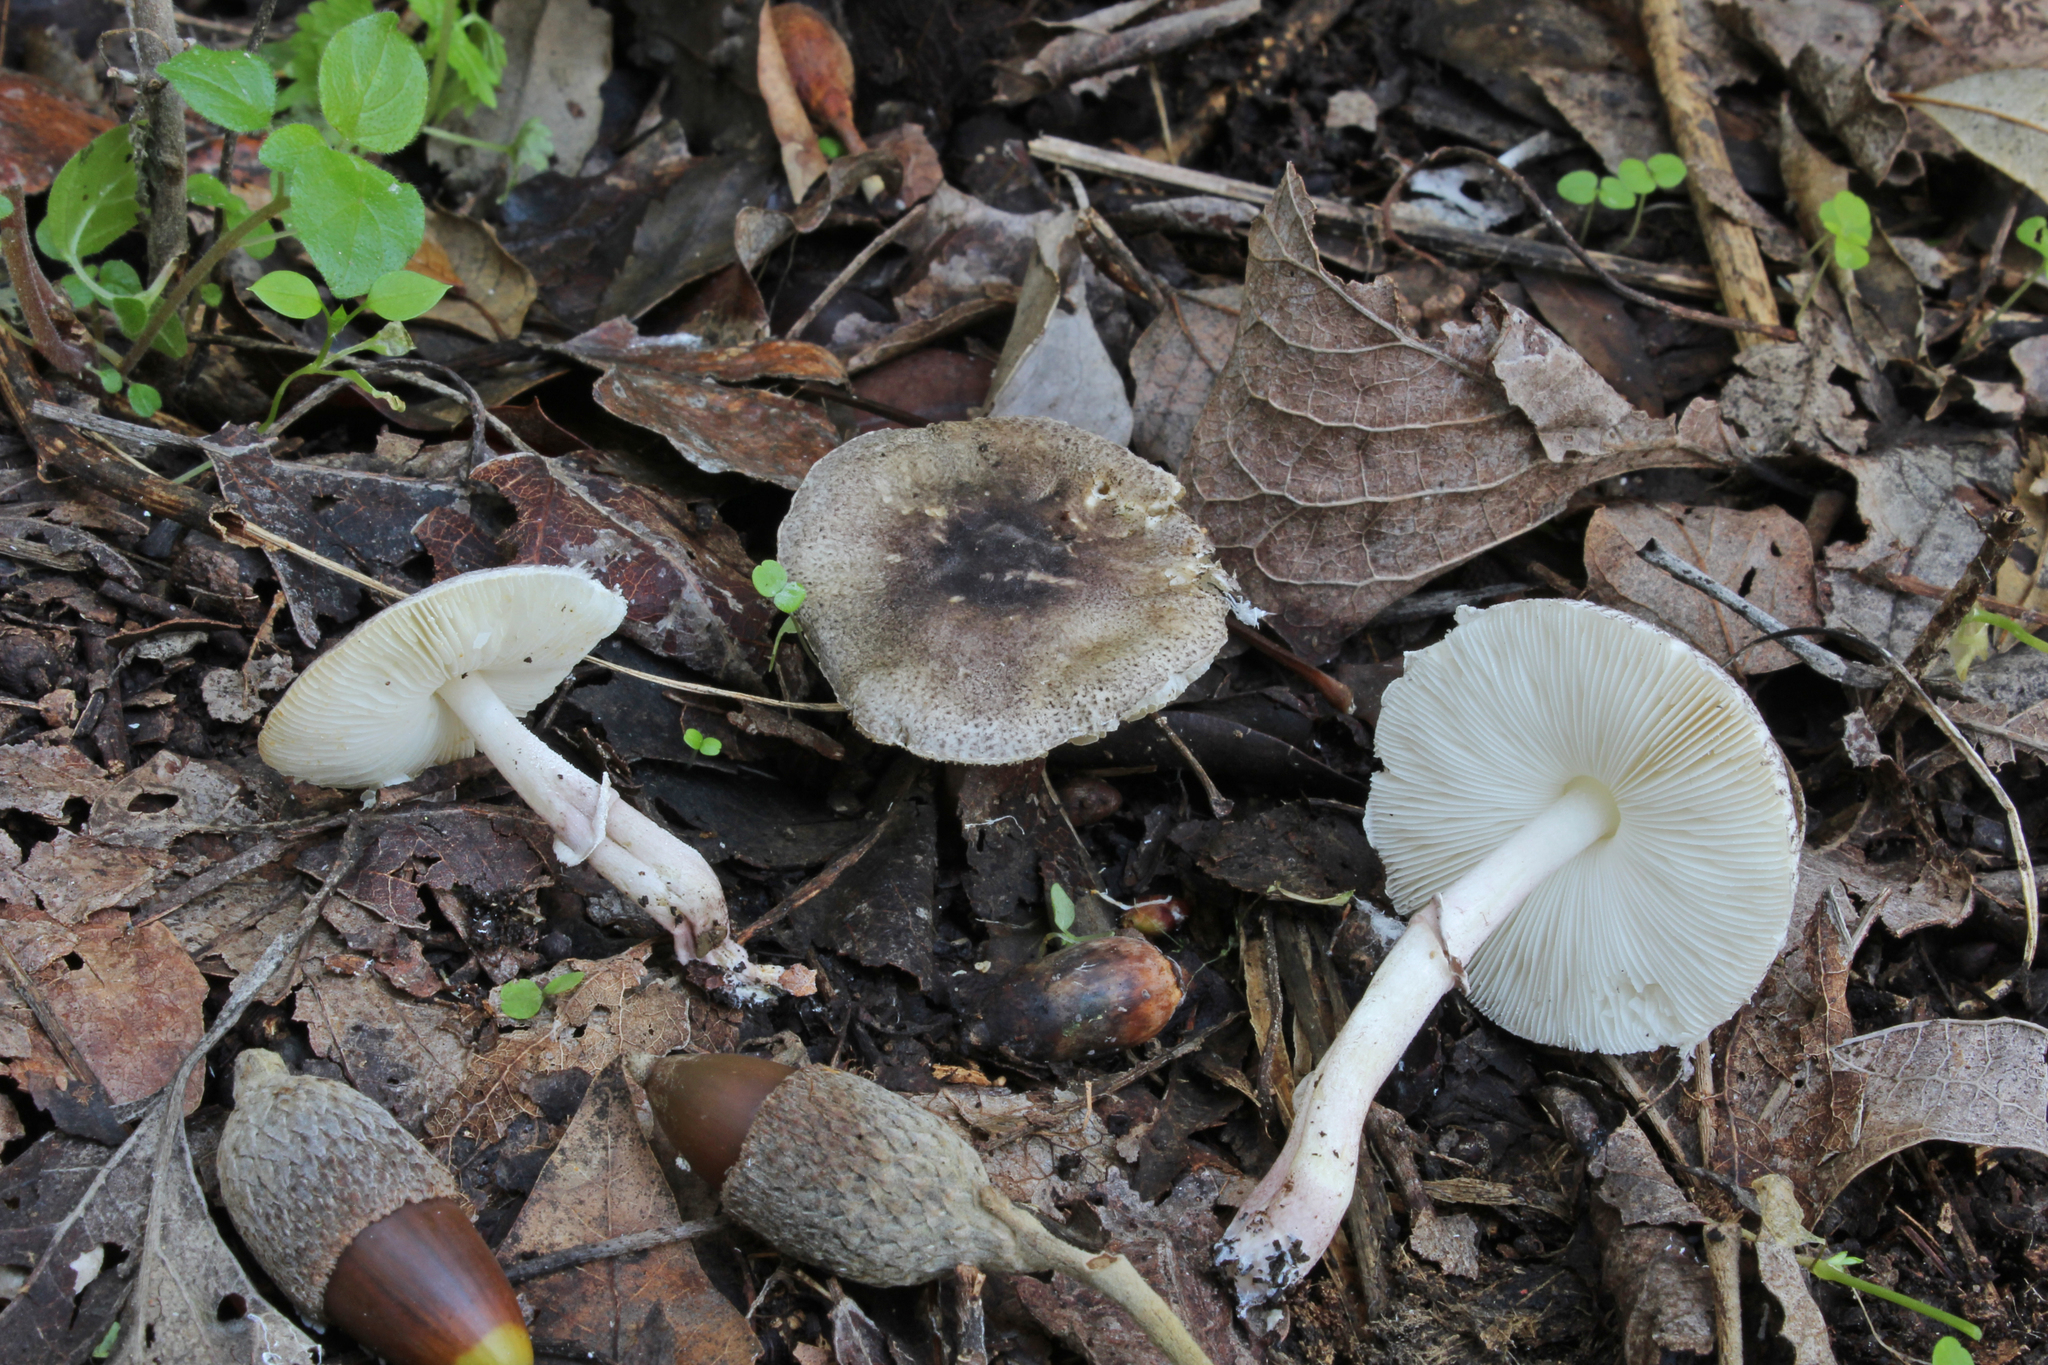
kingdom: Fungi
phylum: Basidiomycota
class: Agaricomycetes
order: Agaricales
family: Agaricaceae
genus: Leucoagaricus
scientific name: Leucoagaricus ionidicolor
